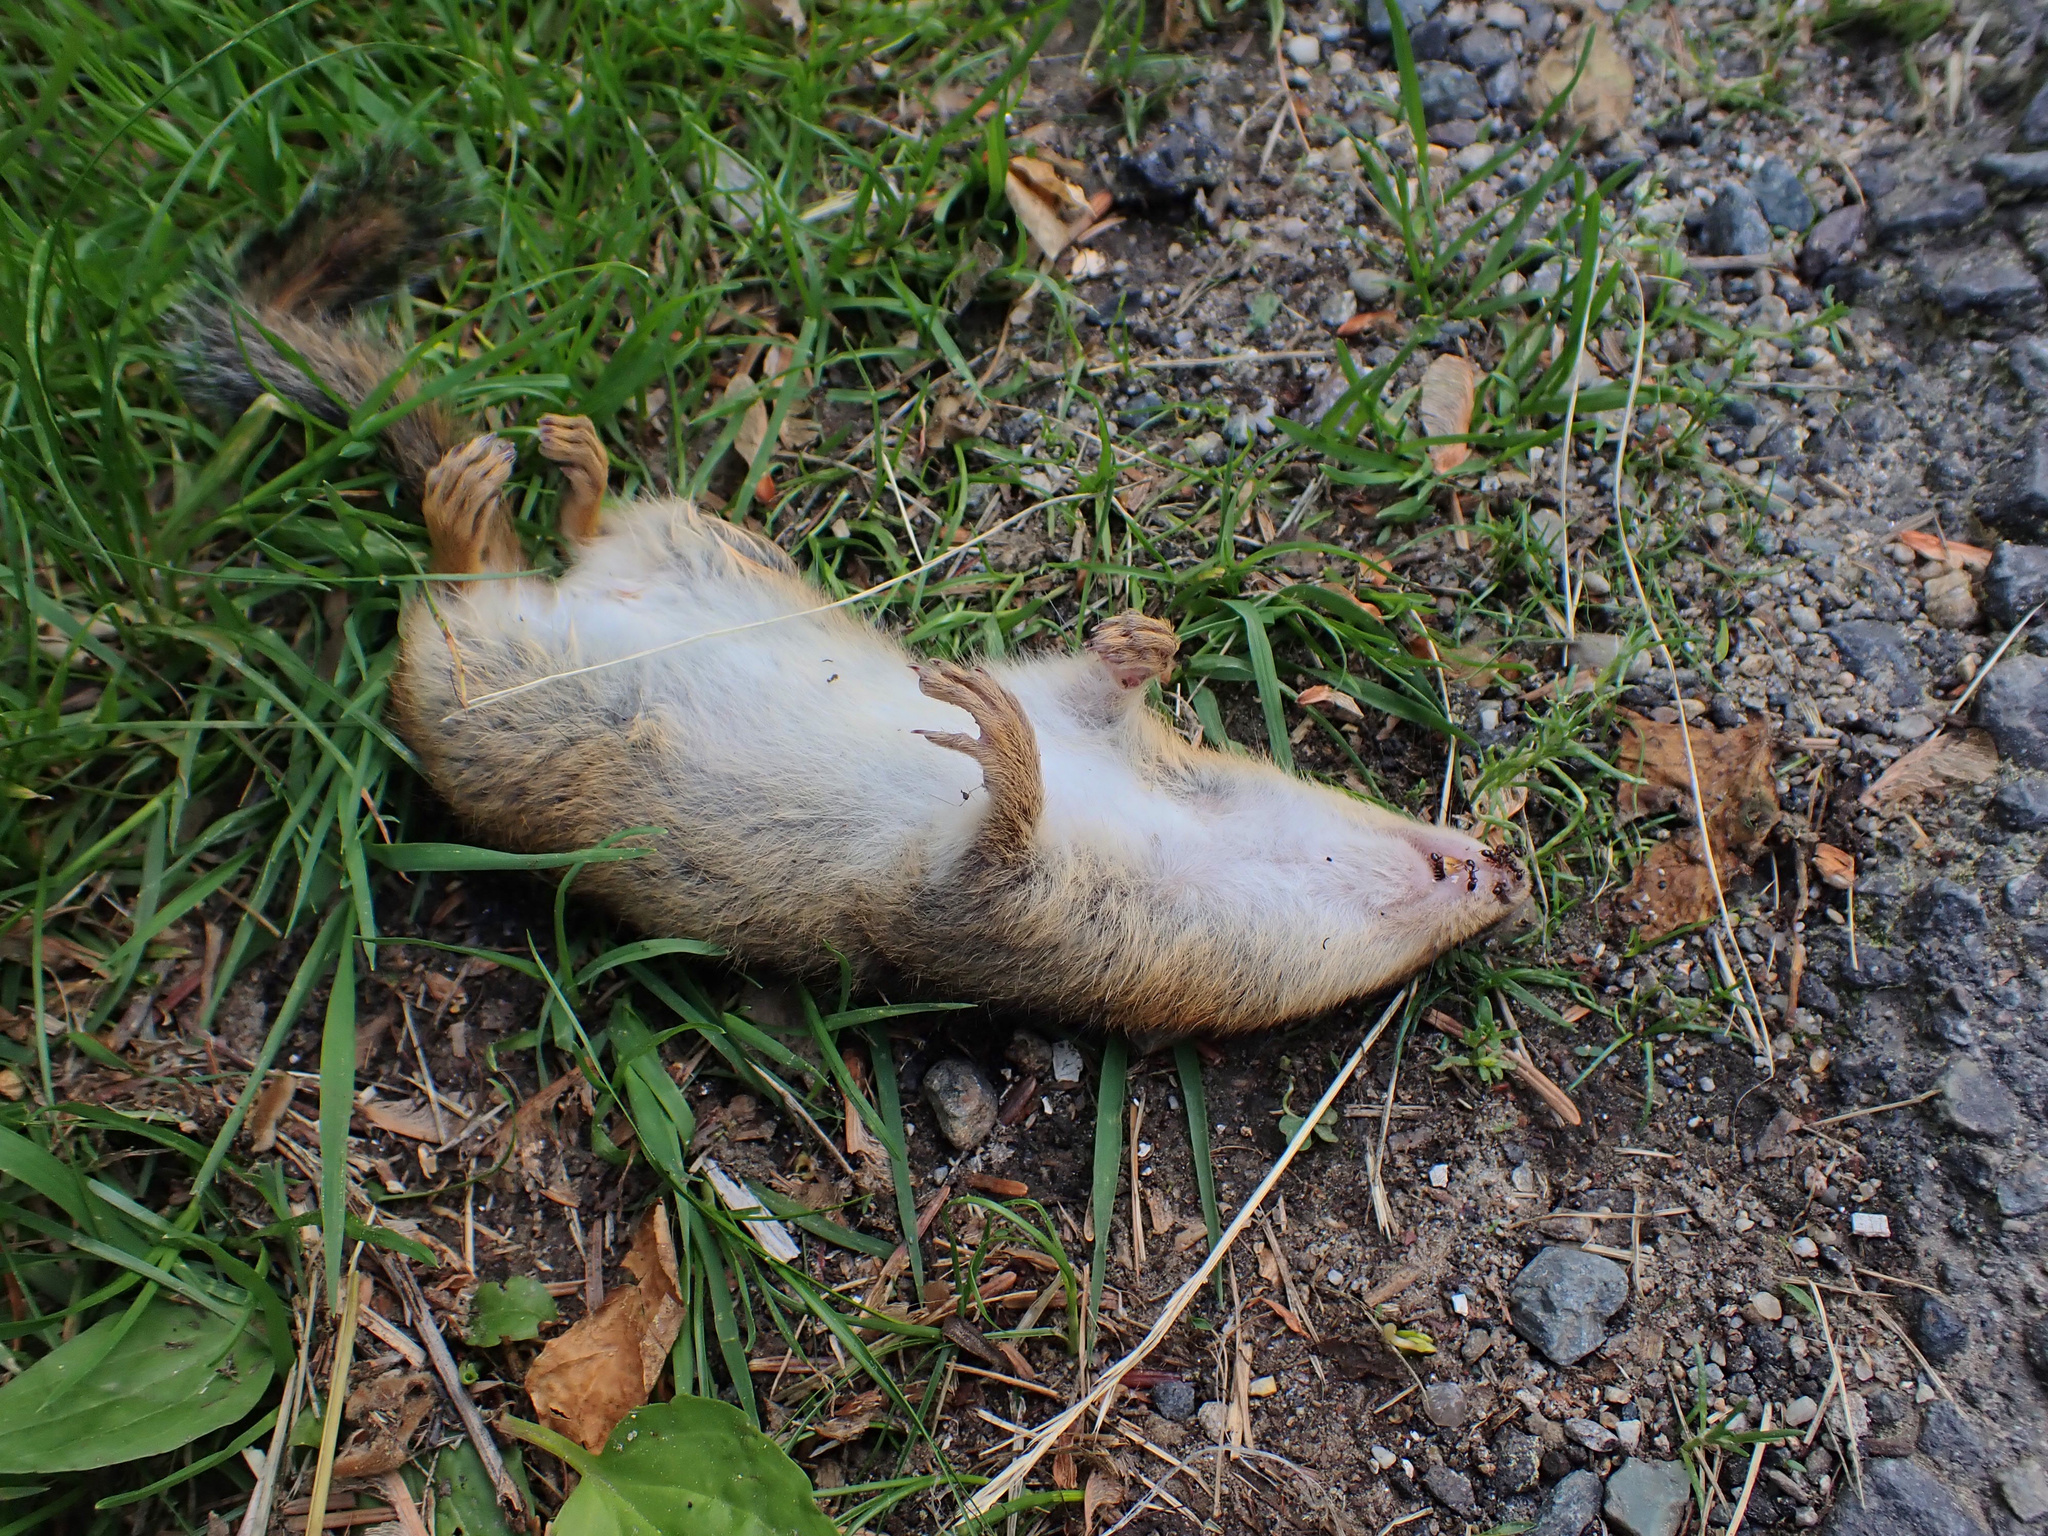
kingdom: Animalia
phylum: Chordata
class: Mammalia
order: Rodentia
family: Sciuridae
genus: Tamias
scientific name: Tamias striatus
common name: Eastern chipmunk
